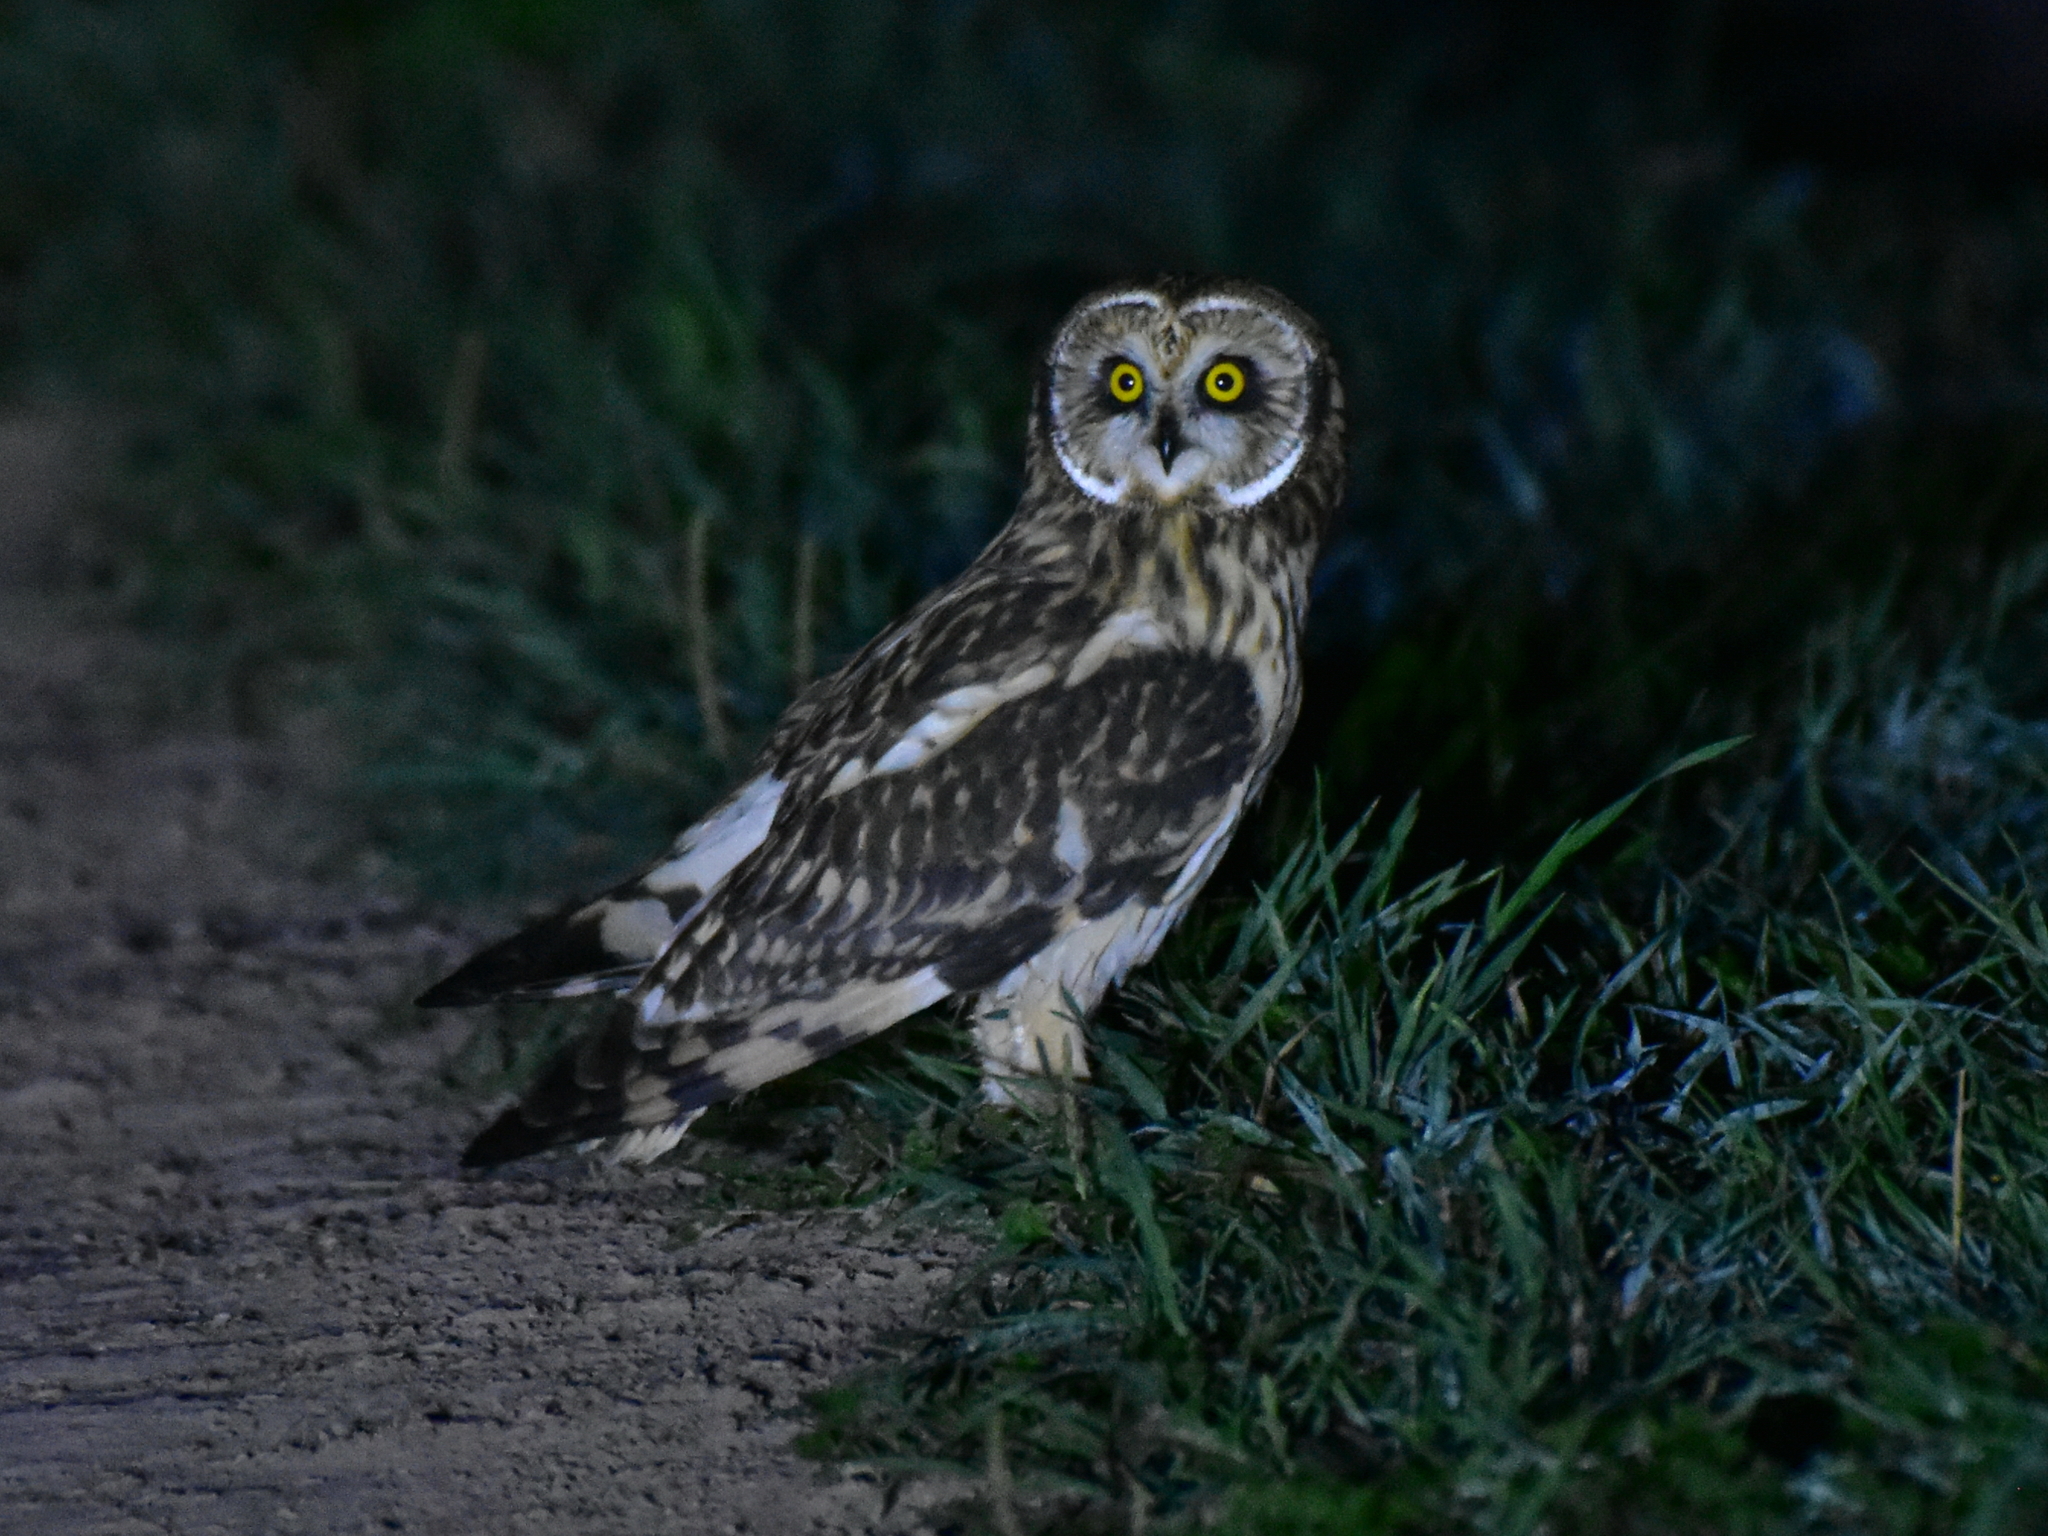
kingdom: Animalia
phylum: Chordata
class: Aves
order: Strigiformes
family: Strigidae
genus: Asio
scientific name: Asio flammeus
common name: Short-eared owl
